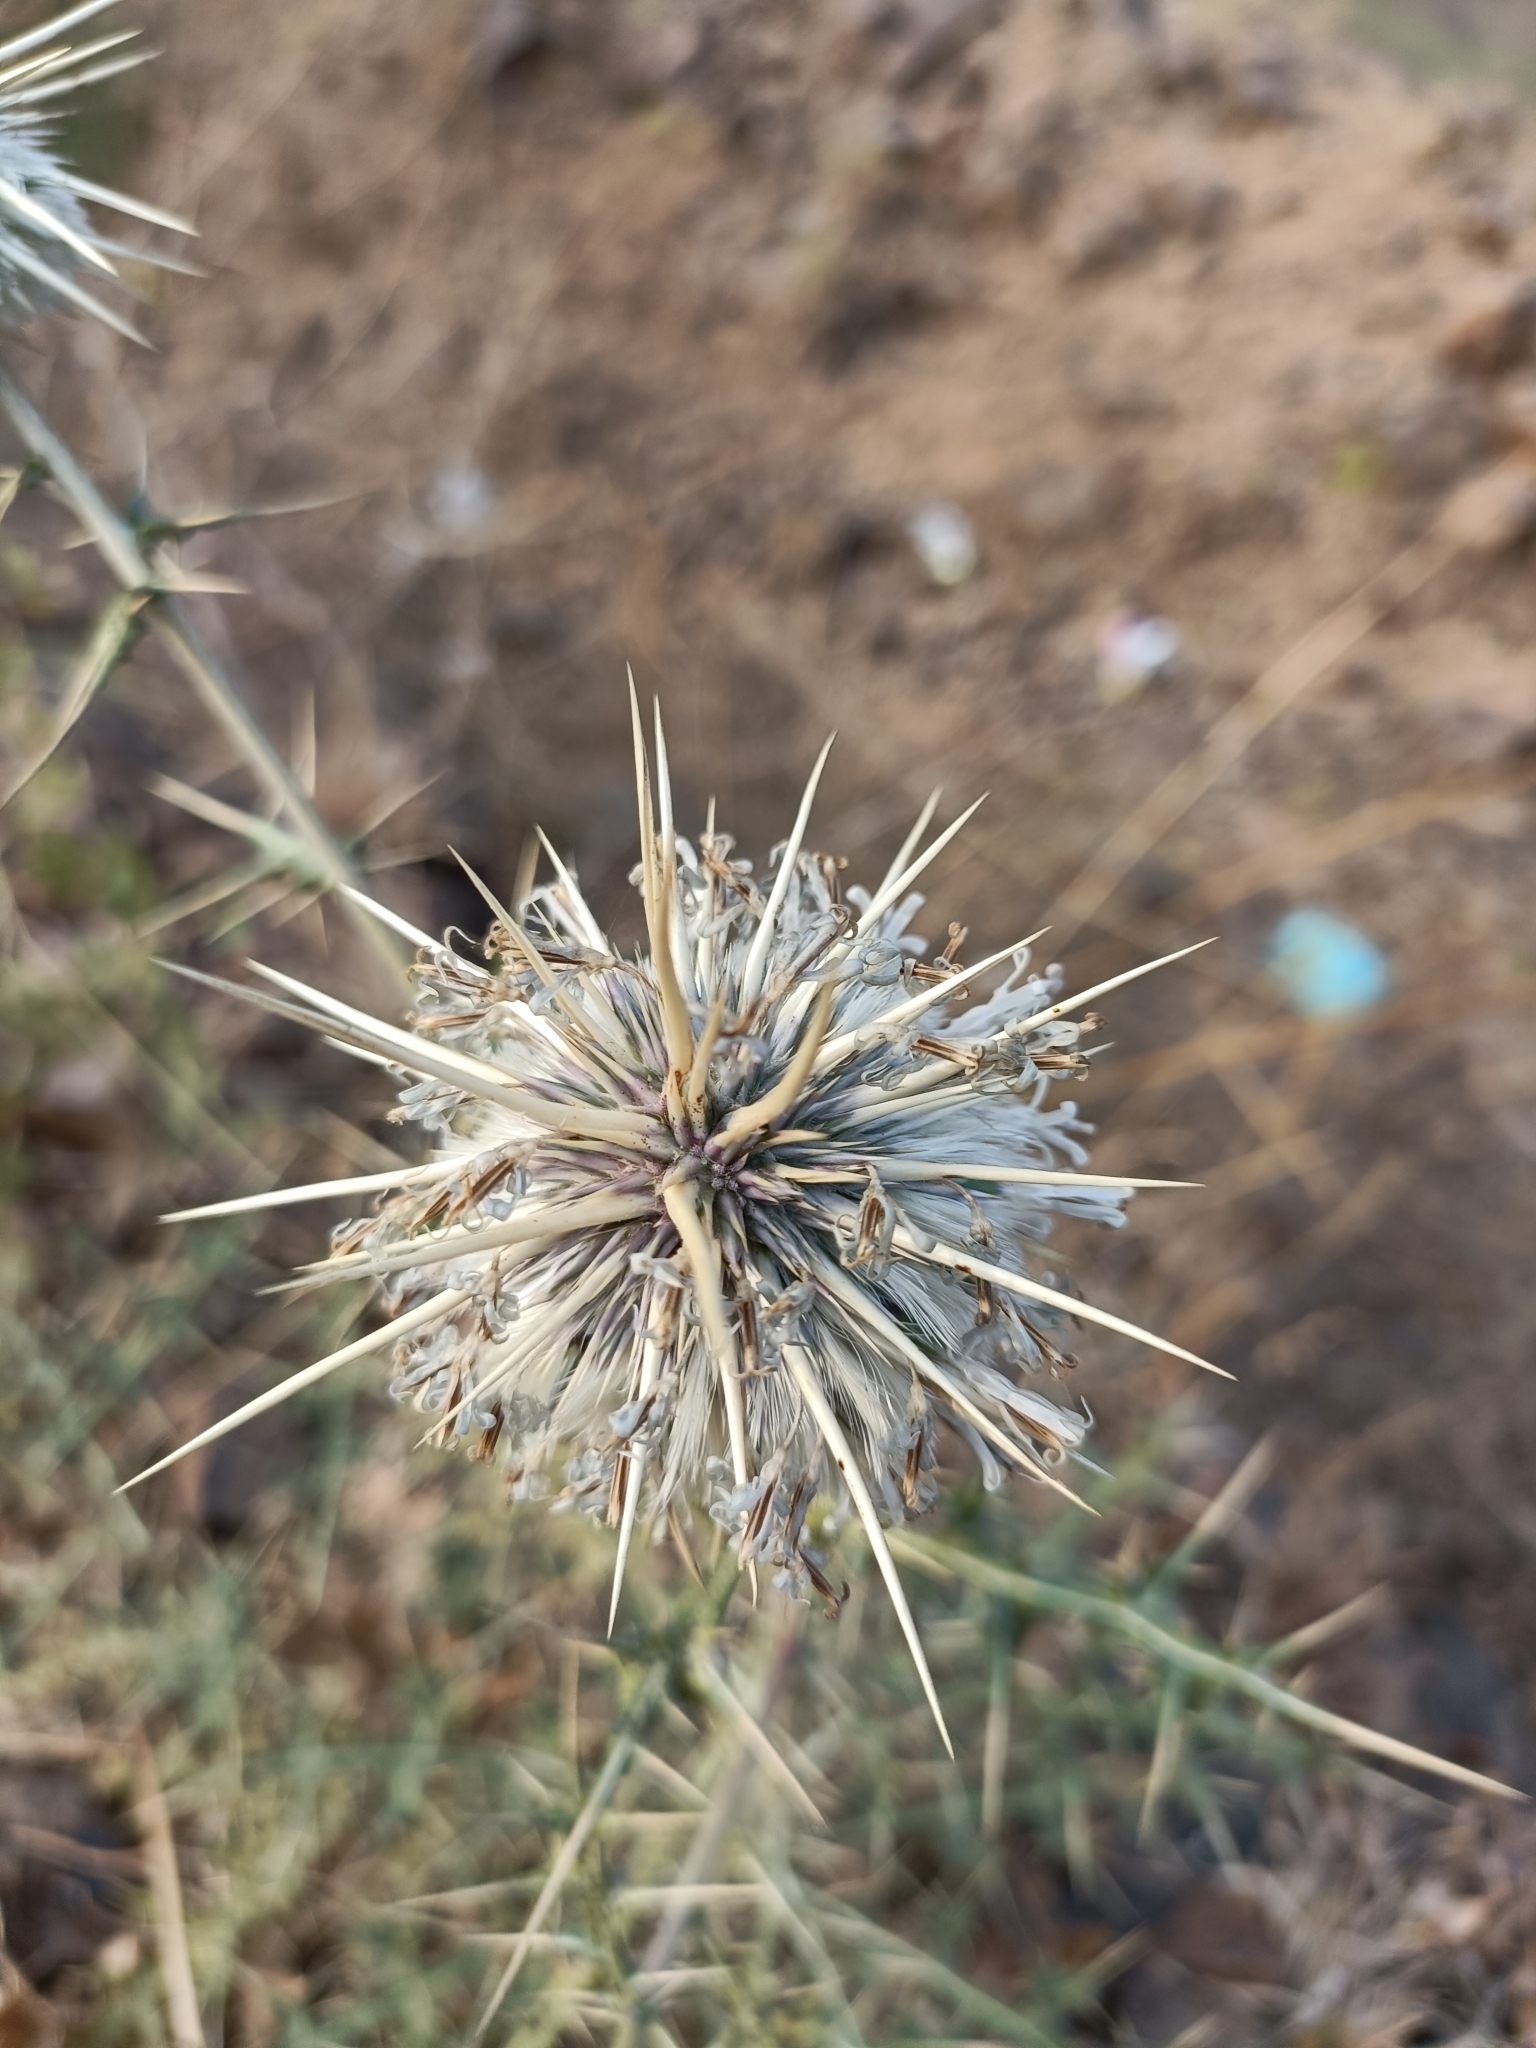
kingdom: Plantae
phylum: Tracheophyta
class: Magnoliopsida
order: Asterales
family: Asteraceae
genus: Echinops
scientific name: Echinops echinatus
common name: Indian globe thistle
